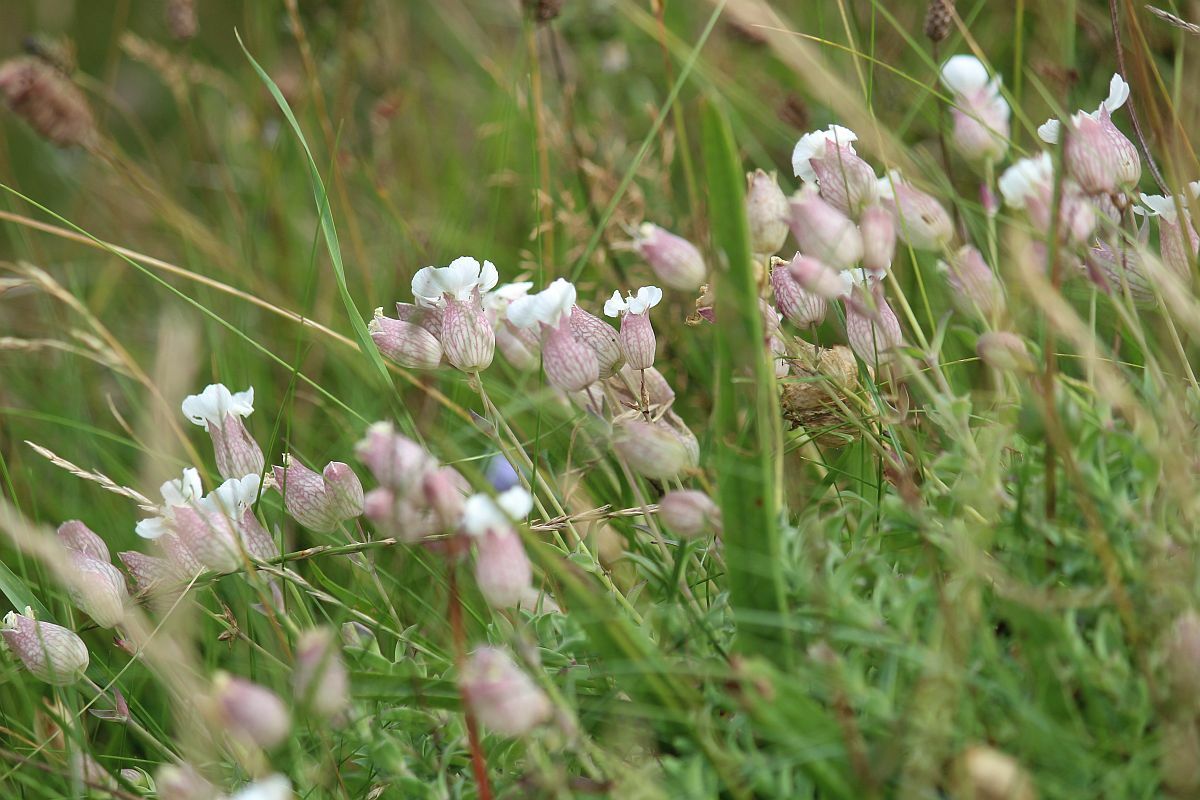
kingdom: Plantae
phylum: Tracheophyta
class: Magnoliopsida
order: Caryophyllales
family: Caryophyllaceae
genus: Silene
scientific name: Silene uniflora
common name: Sea campion
